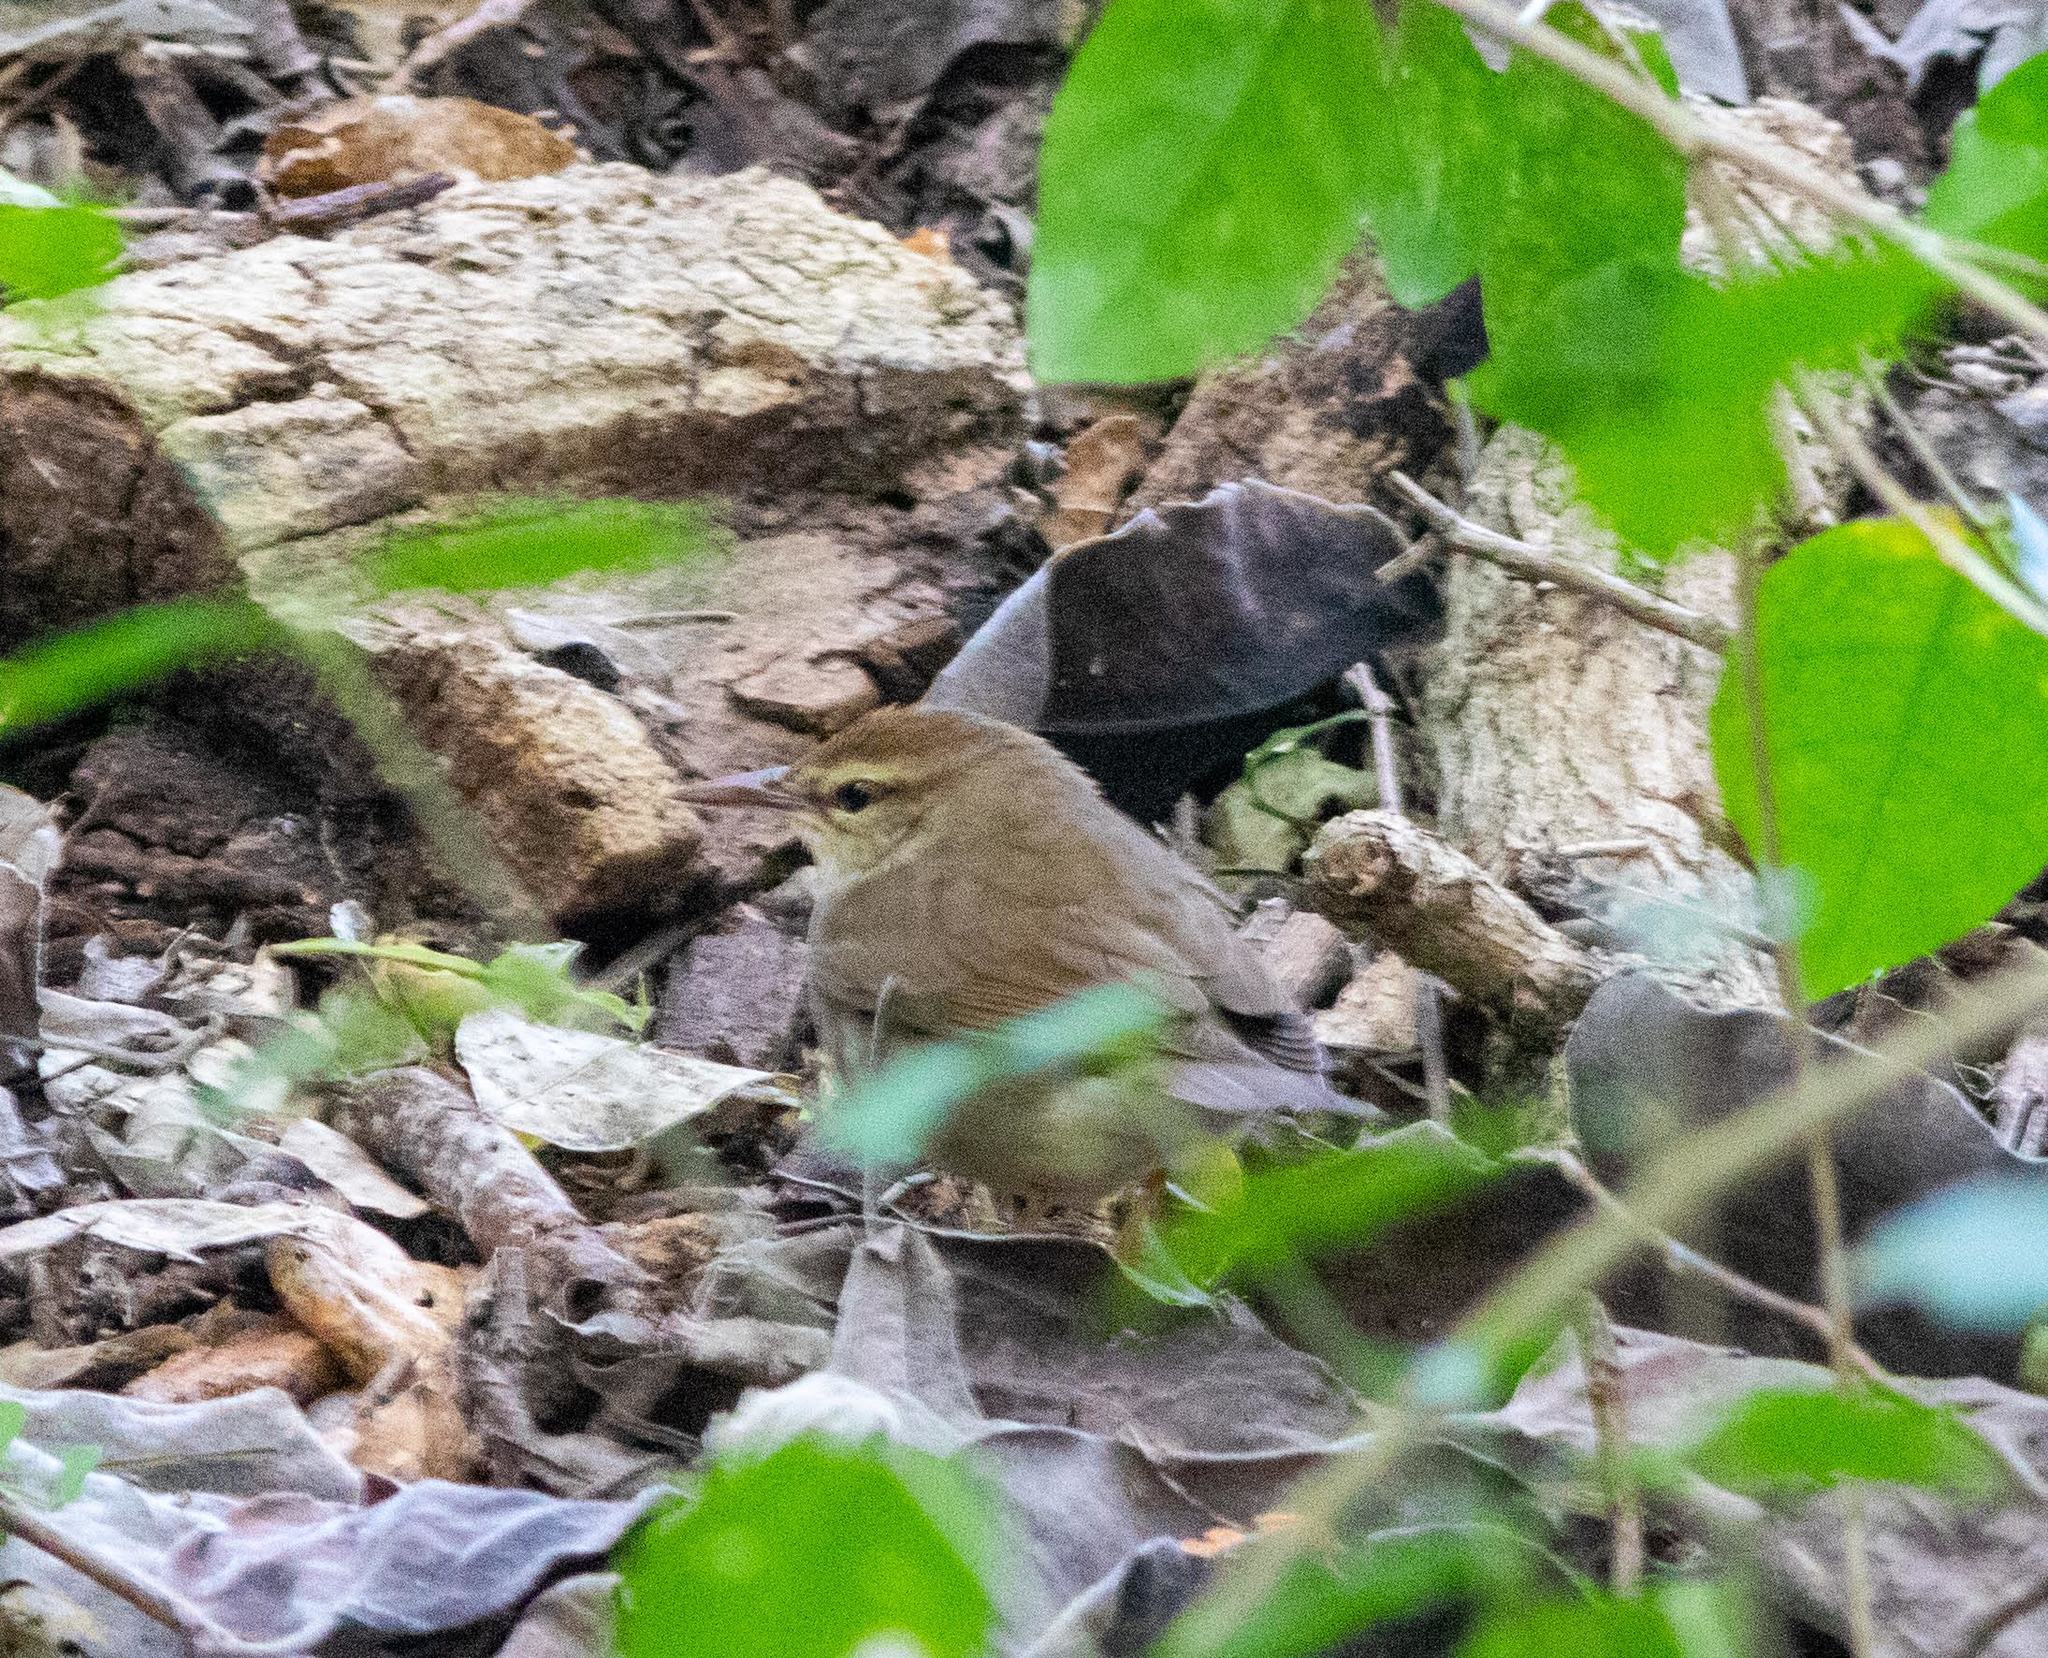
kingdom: Animalia
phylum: Chordata
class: Aves
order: Passeriformes
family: Parulidae
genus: Limnothlypis
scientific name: Limnothlypis swainsonii
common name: Swainson's warbler
